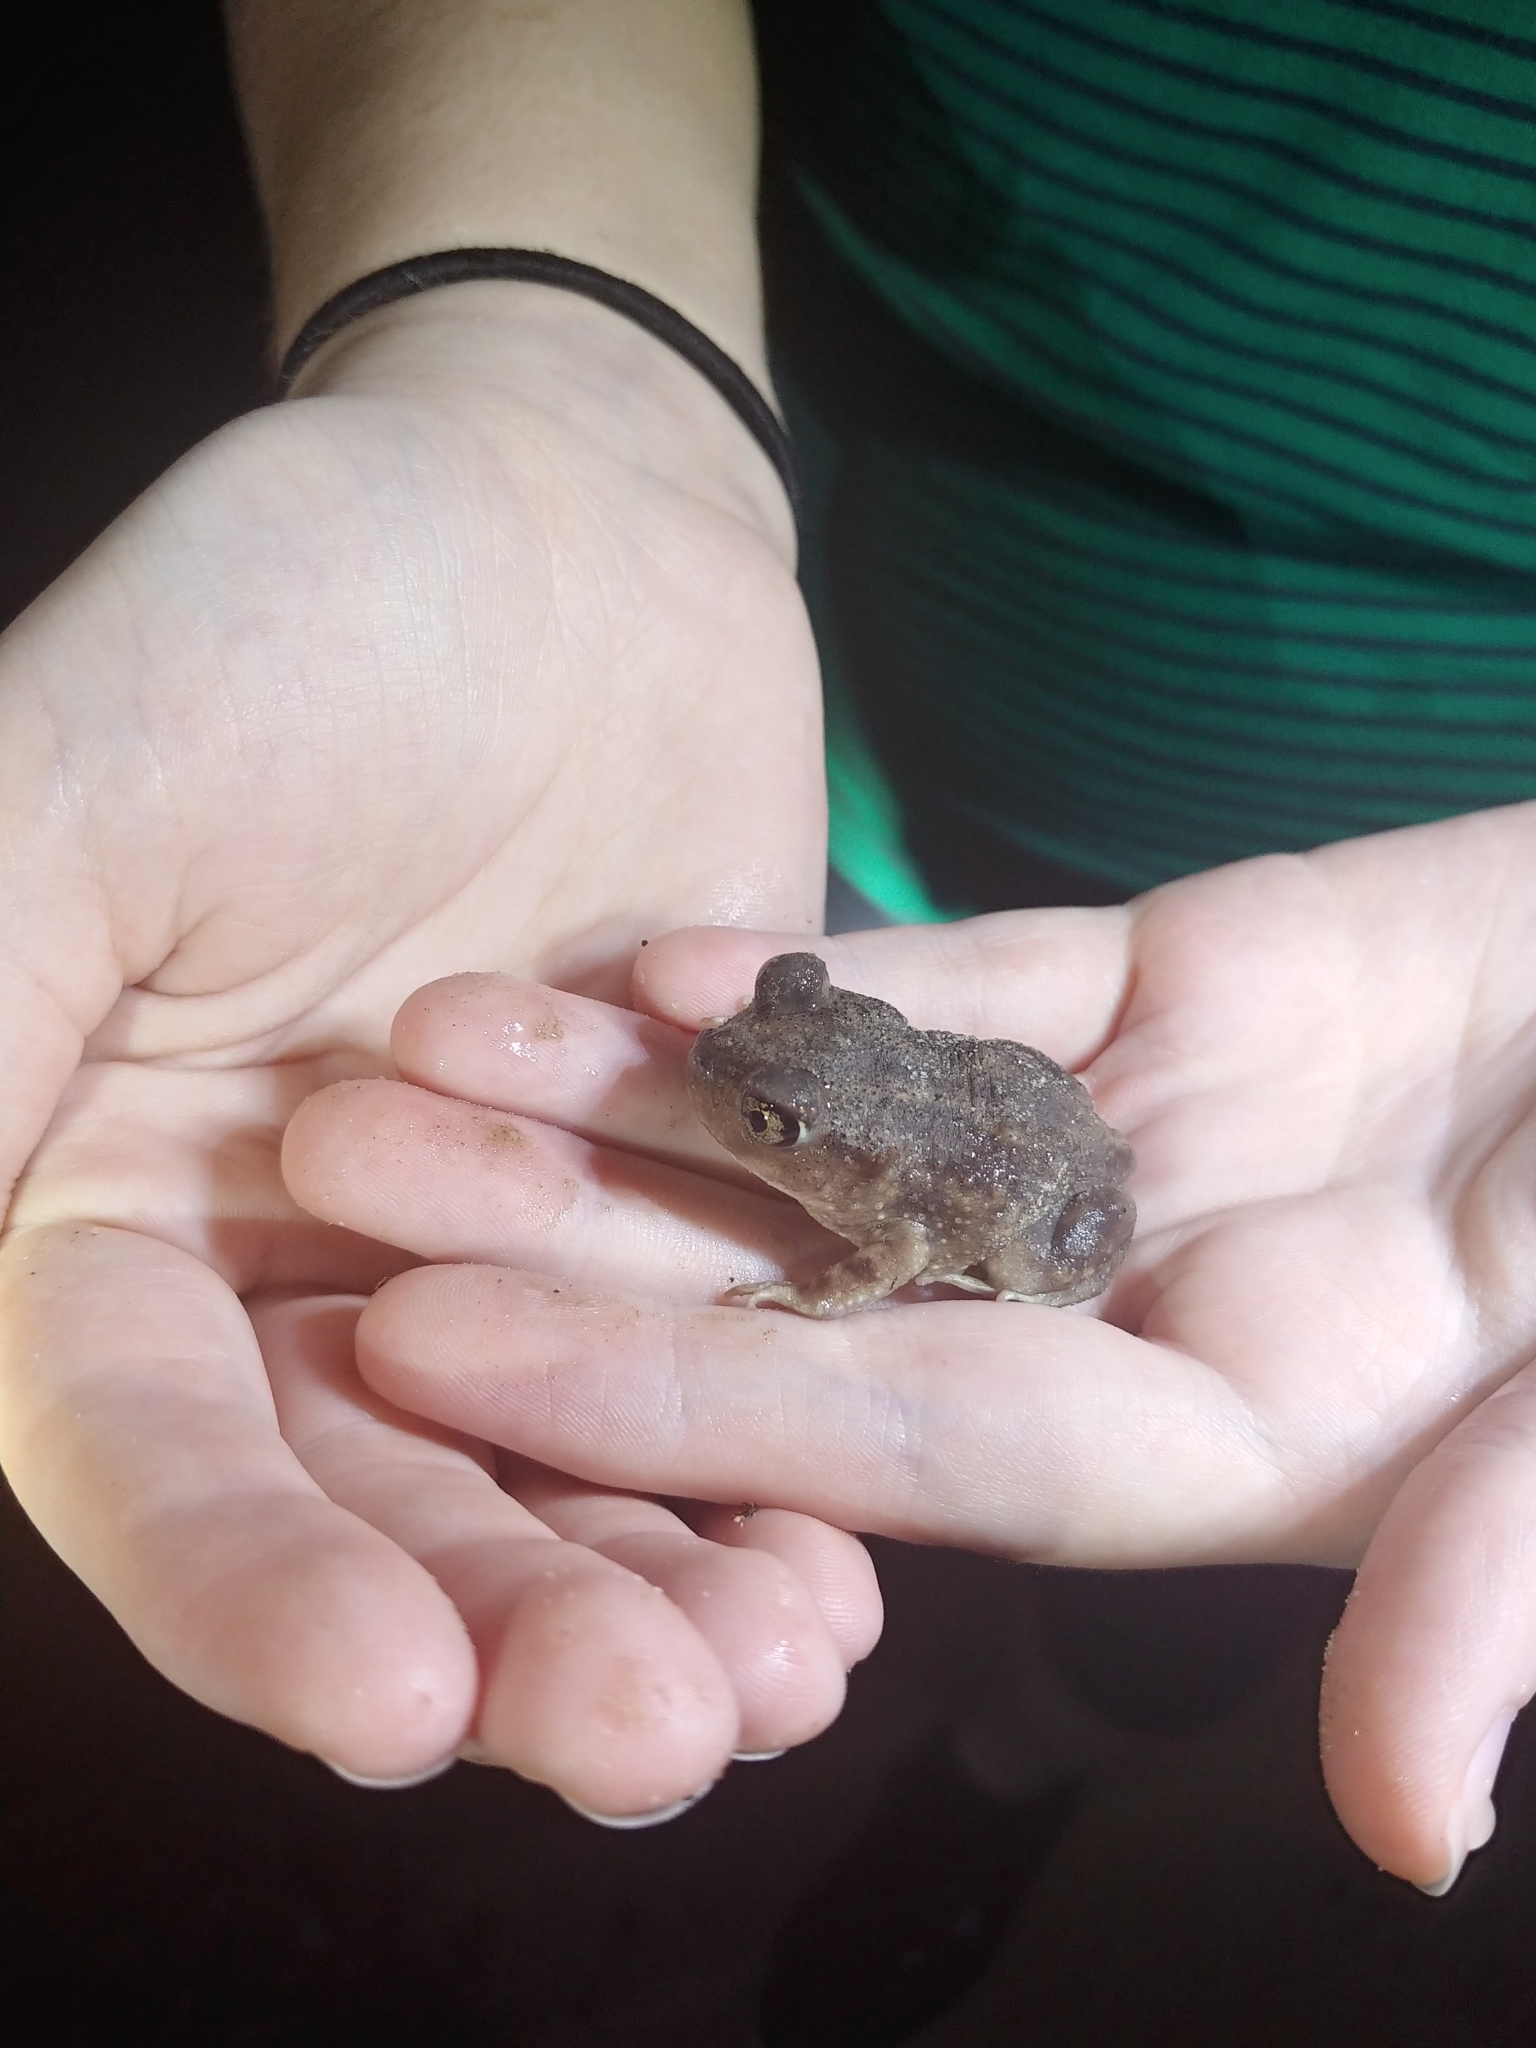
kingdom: Animalia
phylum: Chordata
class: Amphibia
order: Anura
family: Scaphiopodidae
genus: Scaphiopus
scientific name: Scaphiopus holbrookii
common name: Eastern spadefoot toad
